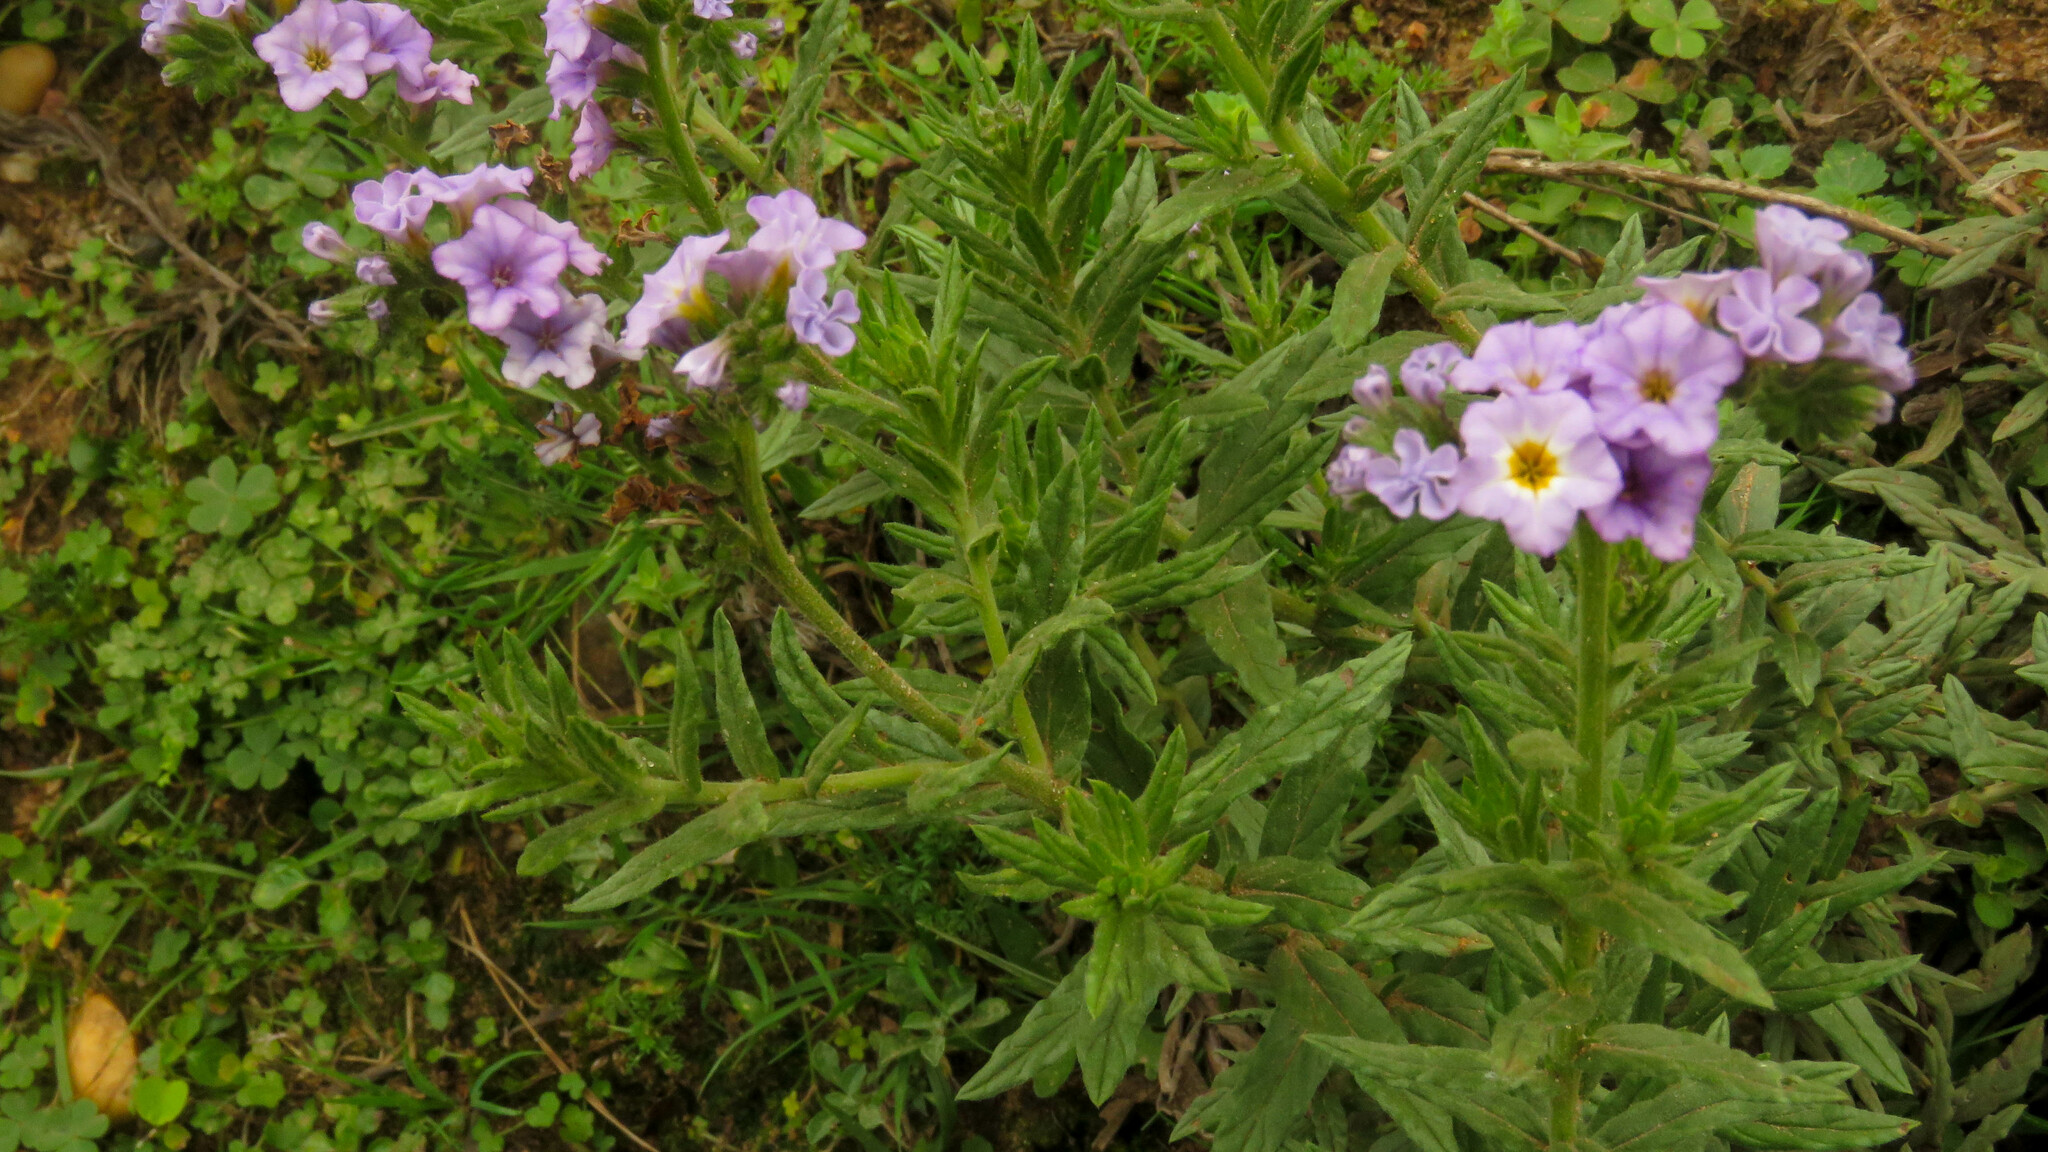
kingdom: Plantae
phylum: Tracheophyta
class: Magnoliopsida
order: Boraginales
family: Heliotropiaceae
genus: Heliotropium
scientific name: Heliotropium amplexicaule
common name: Clasping heliotrope
